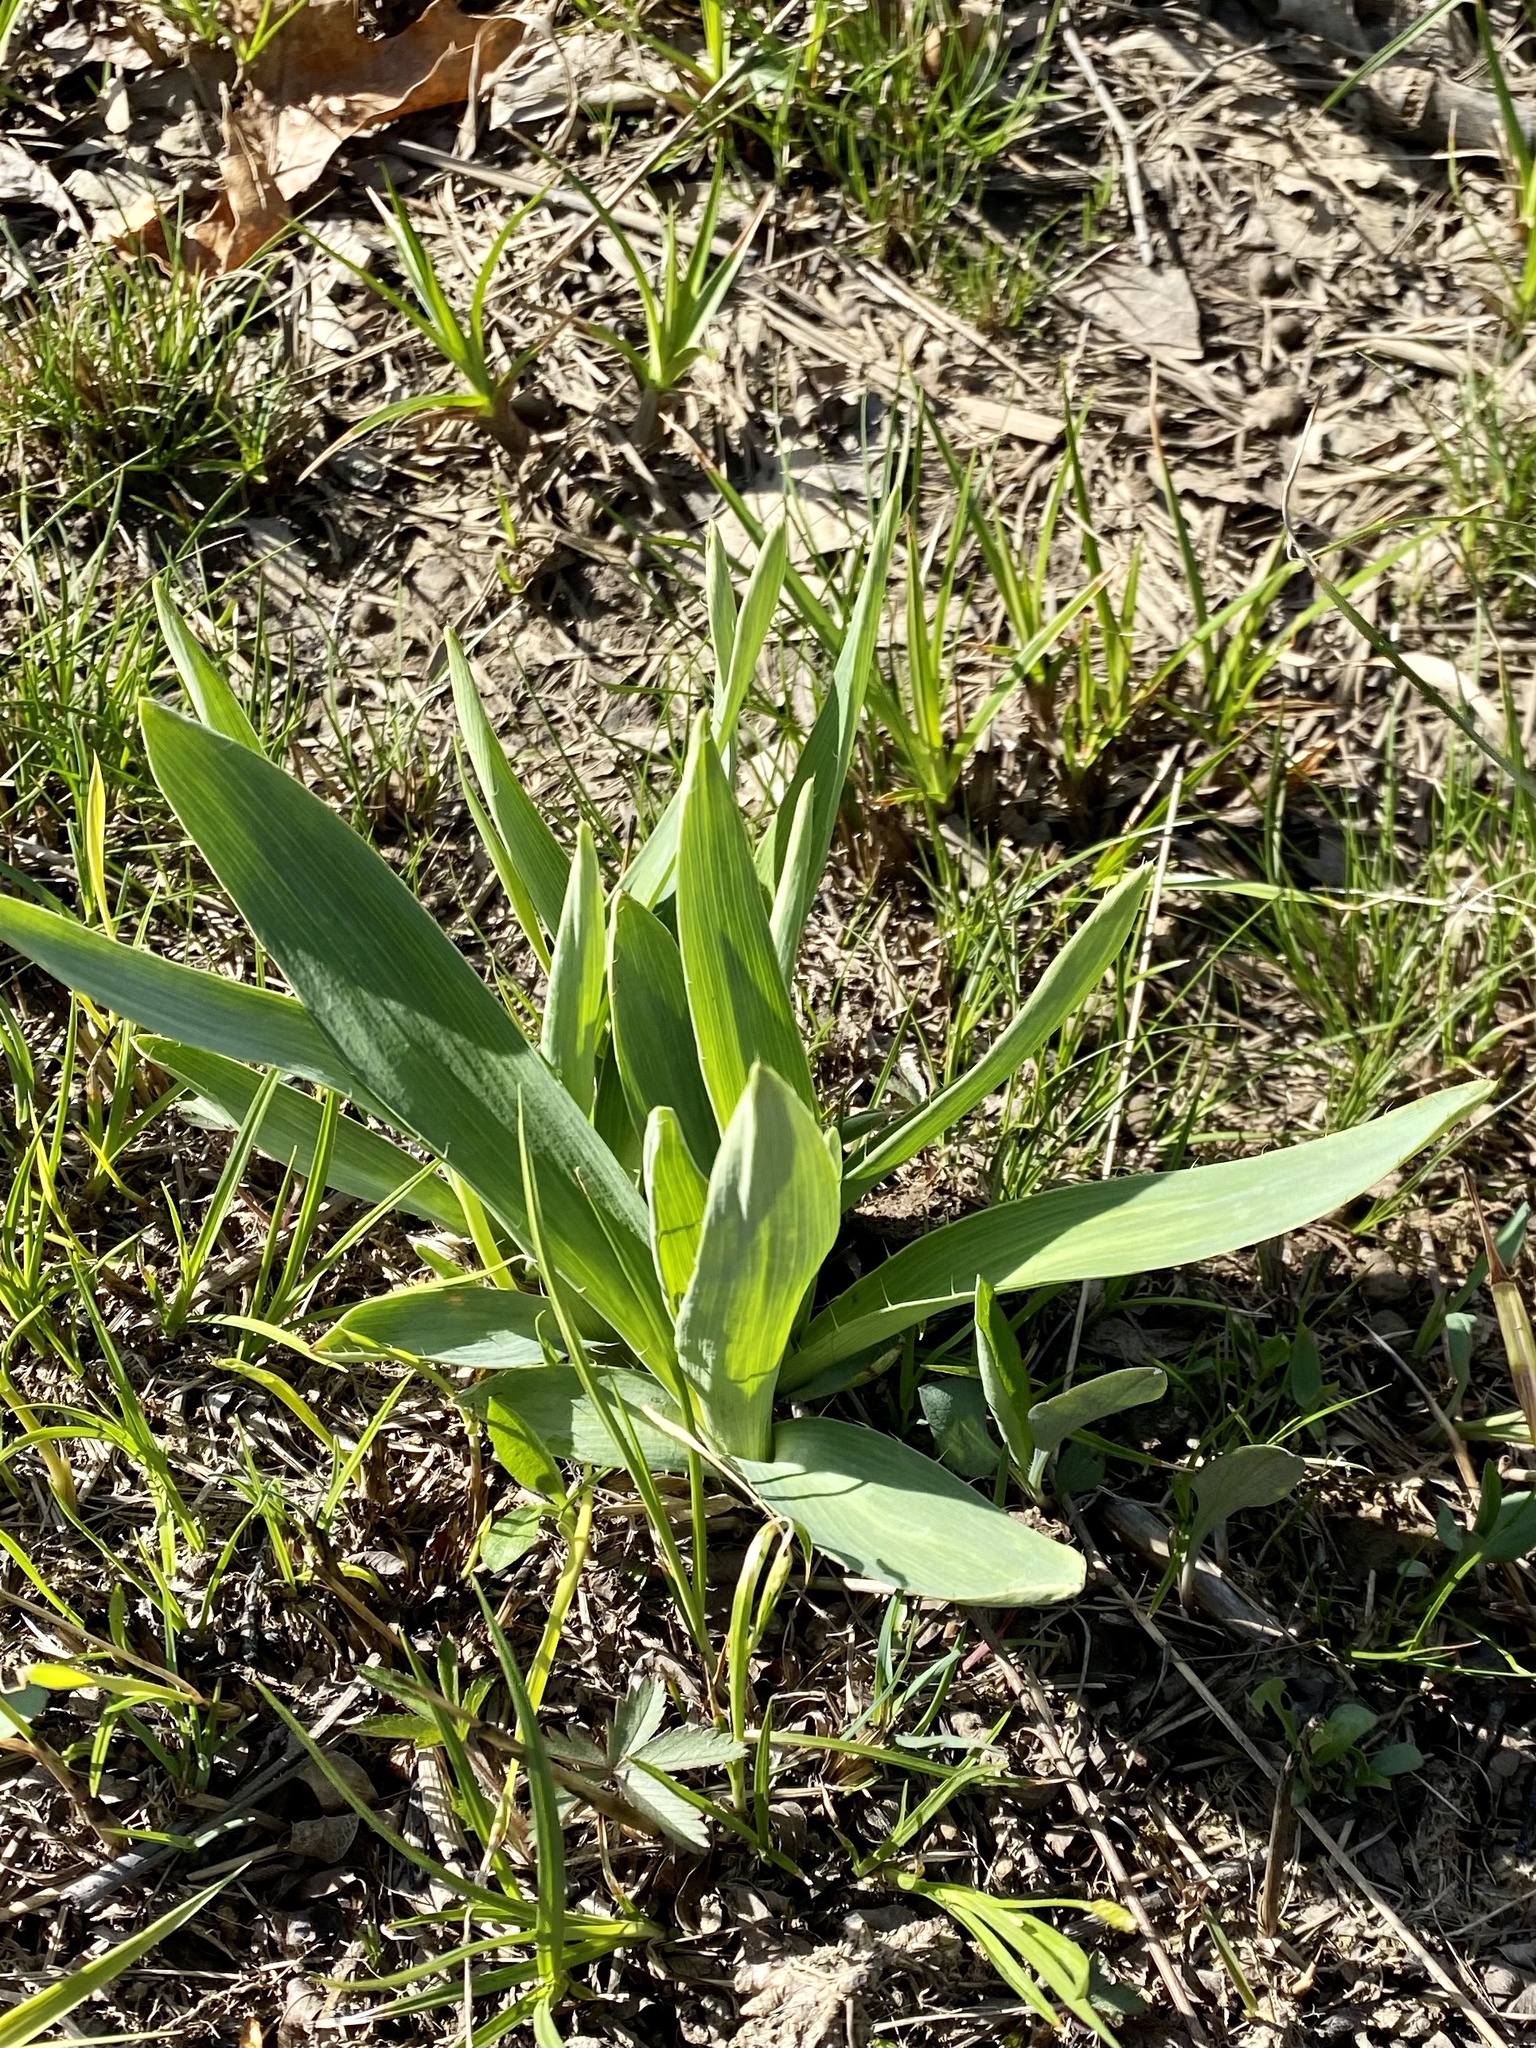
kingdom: Plantae
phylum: Tracheophyta
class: Magnoliopsida
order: Apiales
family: Apiaceae
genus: Eryngium
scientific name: Eryngium yuccifolium
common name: Button eryngo
